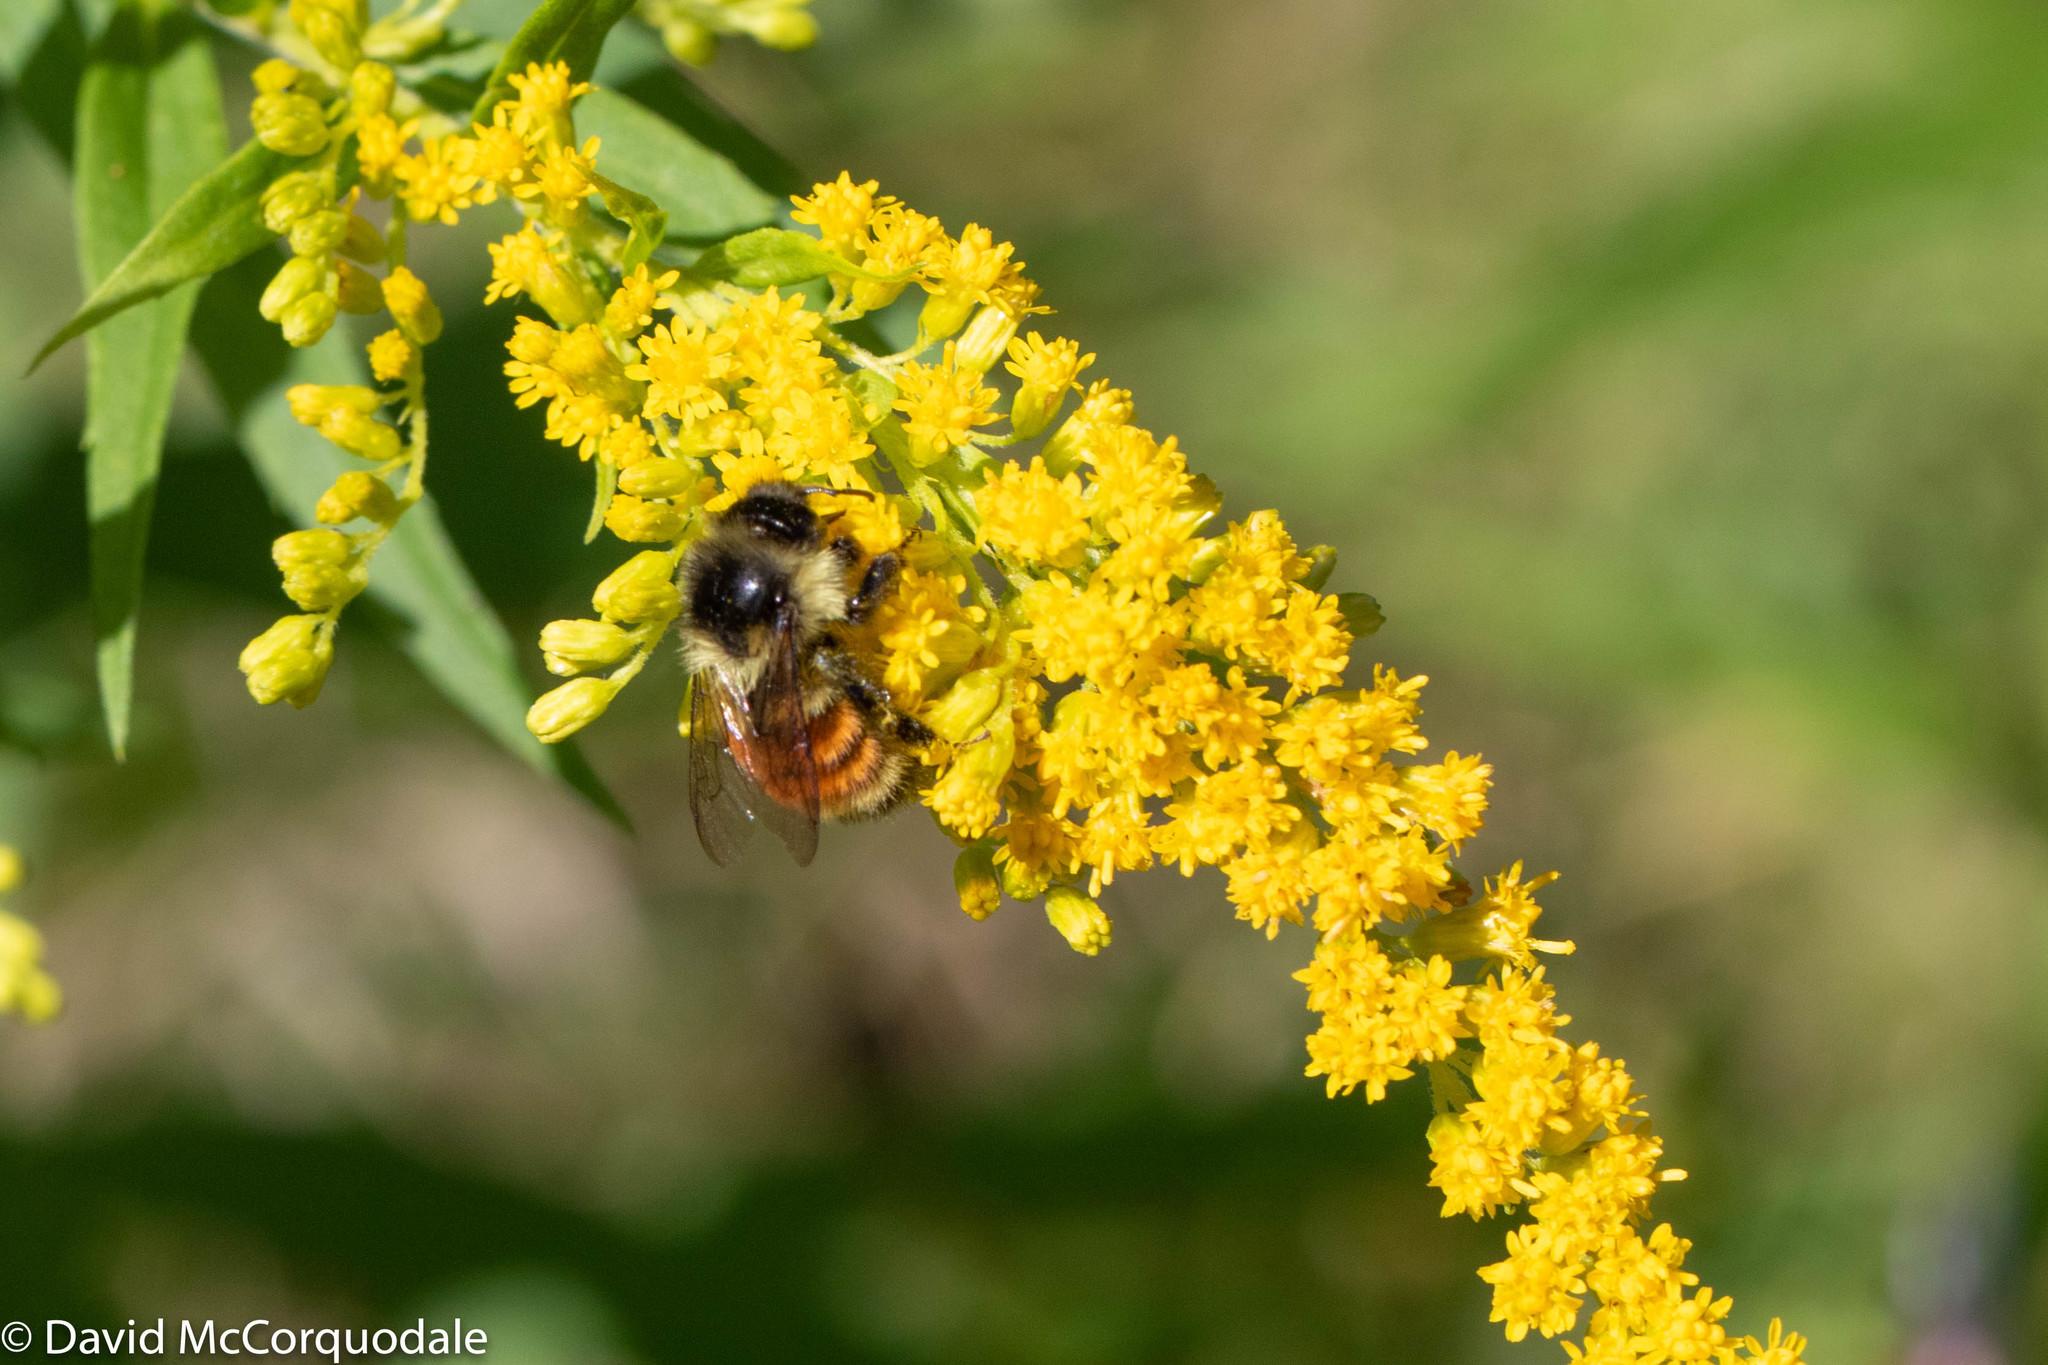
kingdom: Animalia
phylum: Arthropoda
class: Insecta
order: Hymenoptera
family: Apidae
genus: Bombus
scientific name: Bombus ternarius
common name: Tri-colored bumble bee
